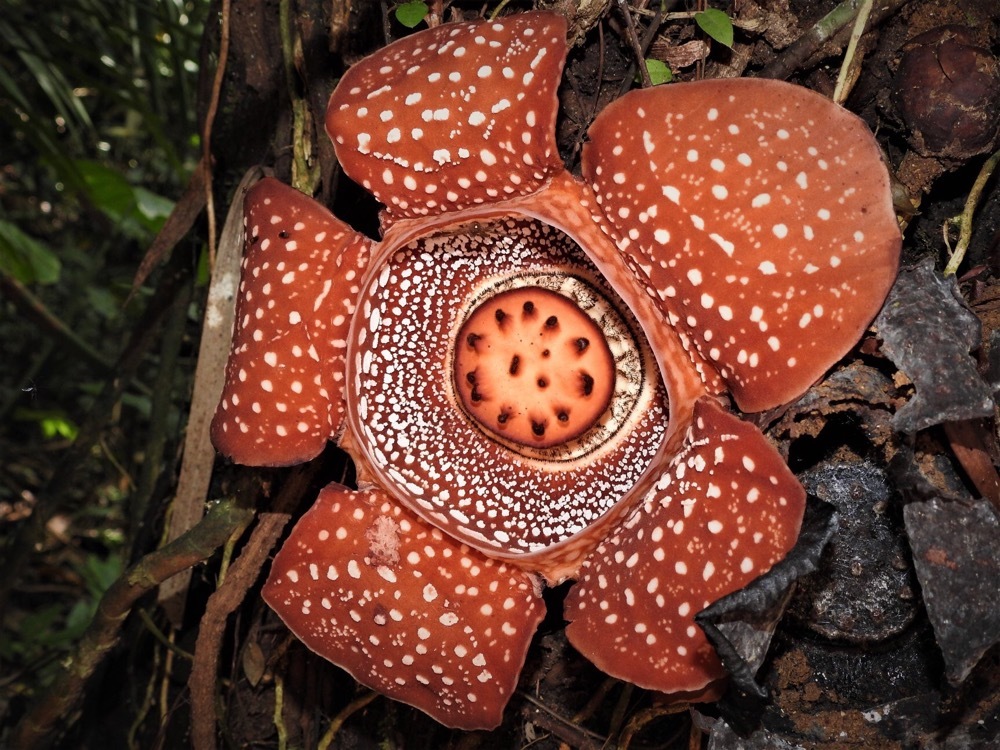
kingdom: Plantae
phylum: Tracheophyta
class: Magnoliopsida
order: Malpighiales
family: Rafflesiaceae
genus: Rafflesia
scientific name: Rafflesia lagascae
